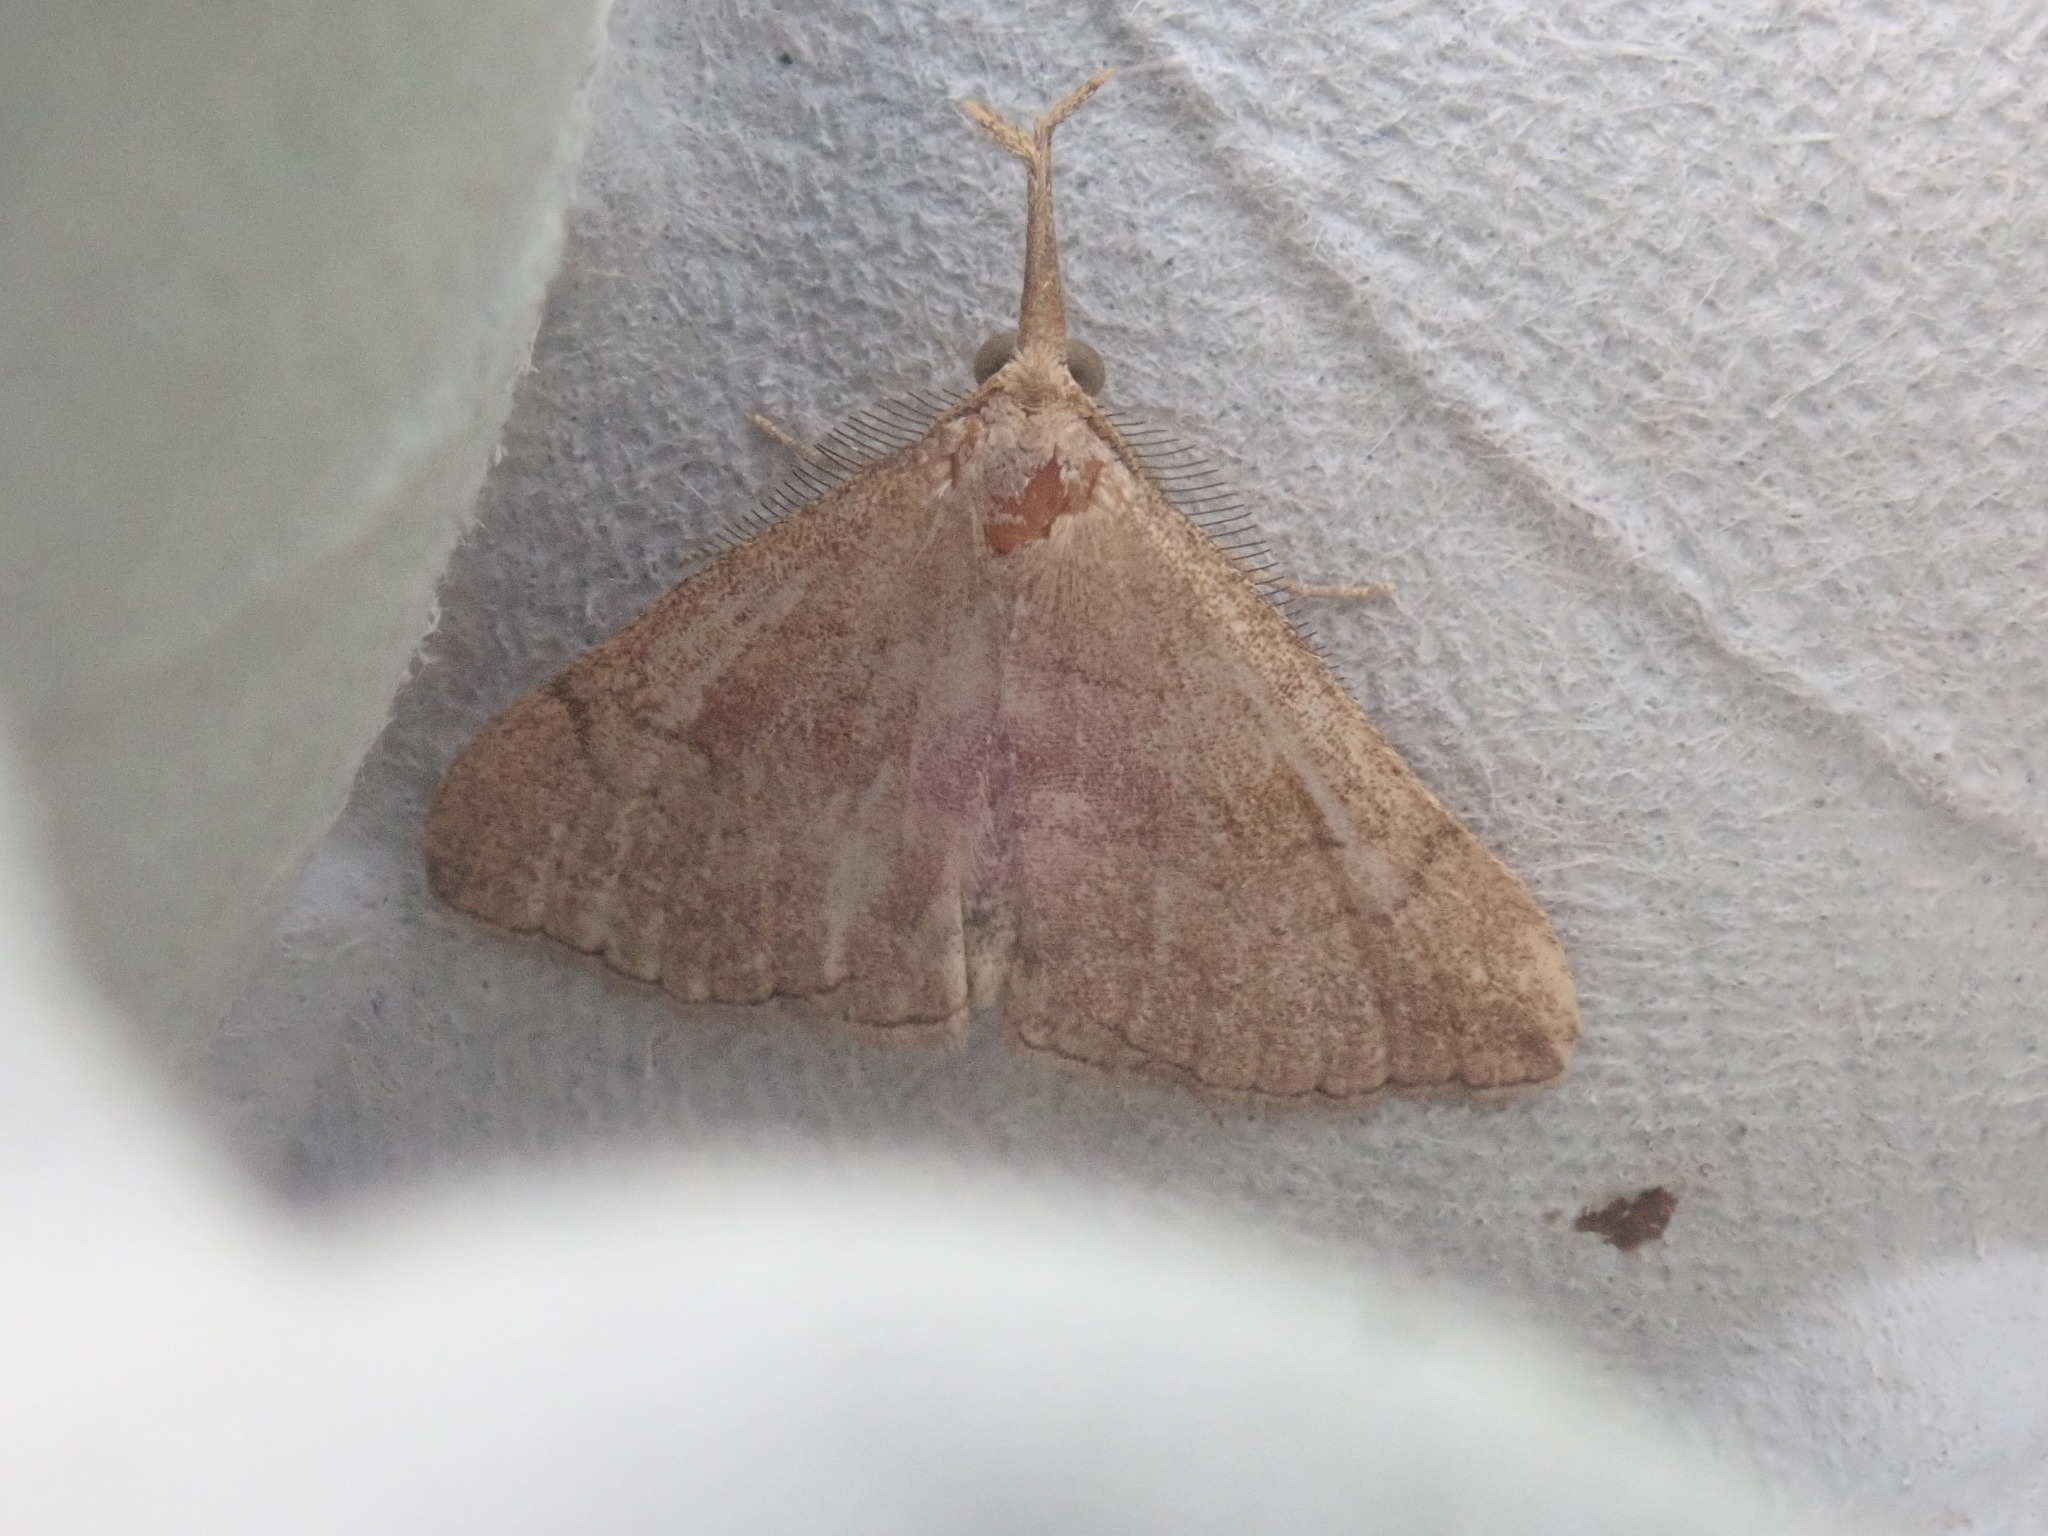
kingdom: Animalia
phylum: Arthropoda
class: Insecta
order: Lepidoptera
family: Erebidae
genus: Phalaenostola
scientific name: Phalaenostola metonalis
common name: Pale phalaenostola moth
